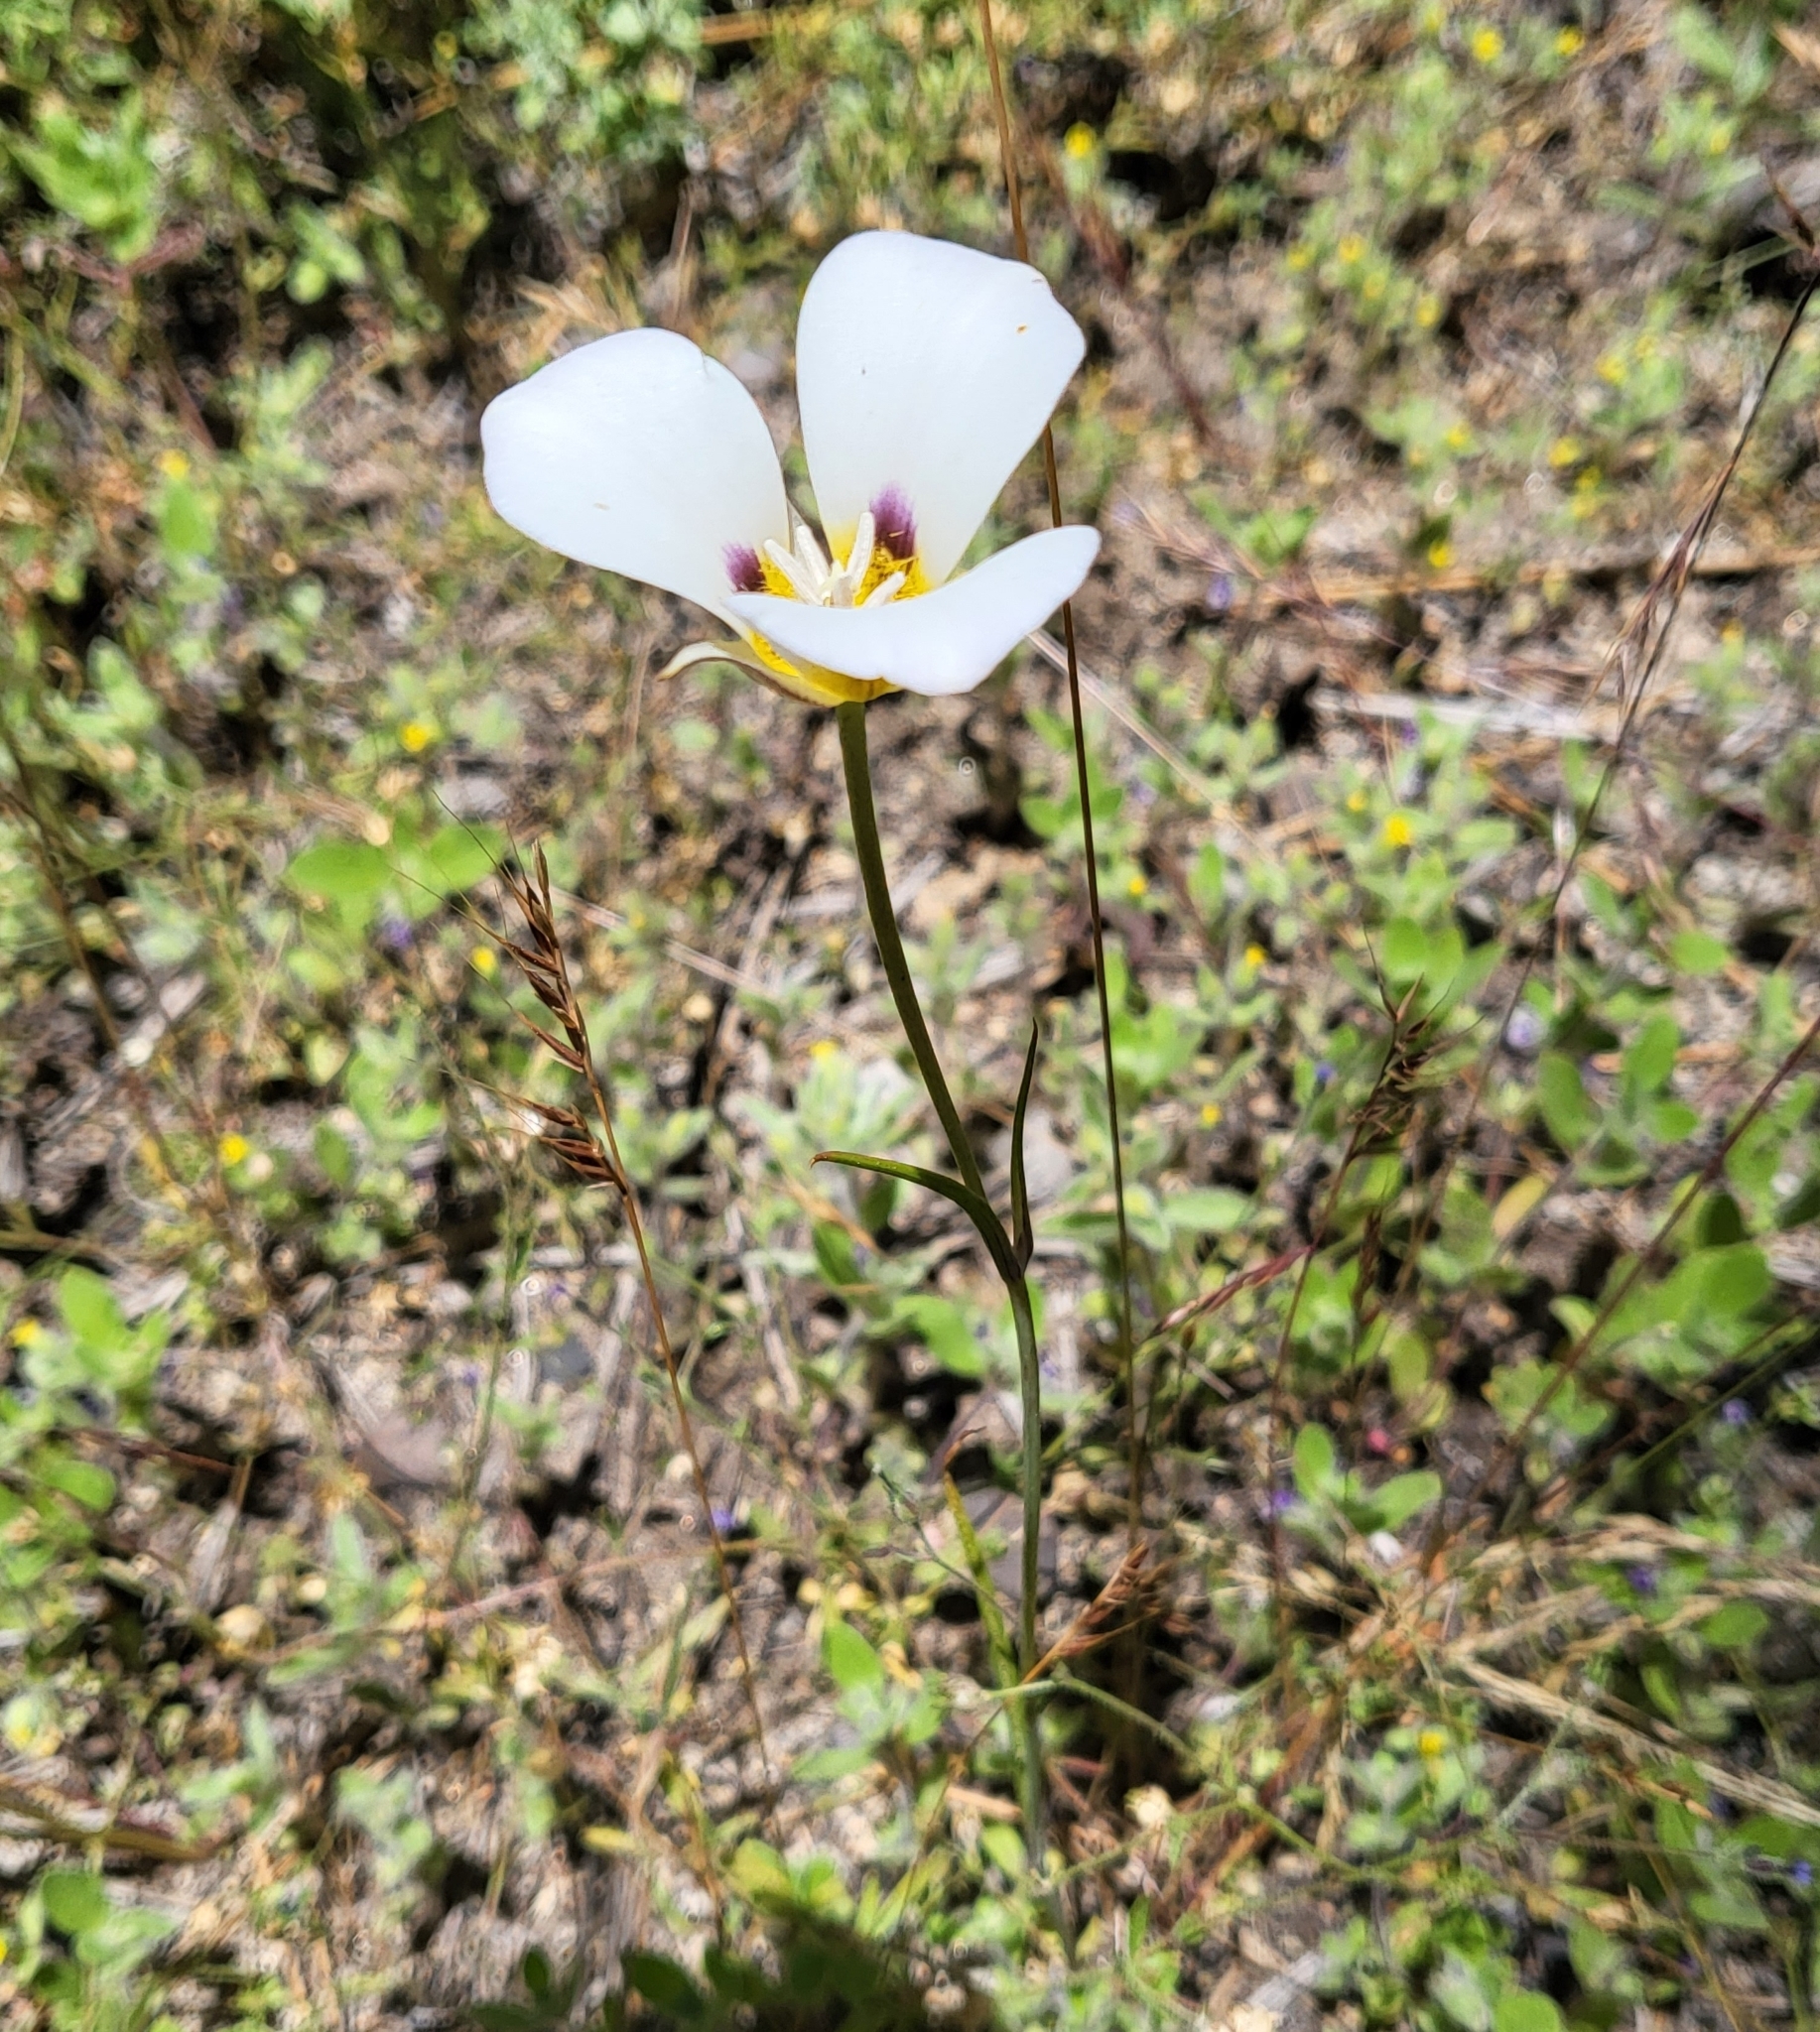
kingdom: Plantae
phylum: Tracheophyta
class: Liliopsida
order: Liliales
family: Liliaceae
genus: Calochortus
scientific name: Calochortus leichtlinii
